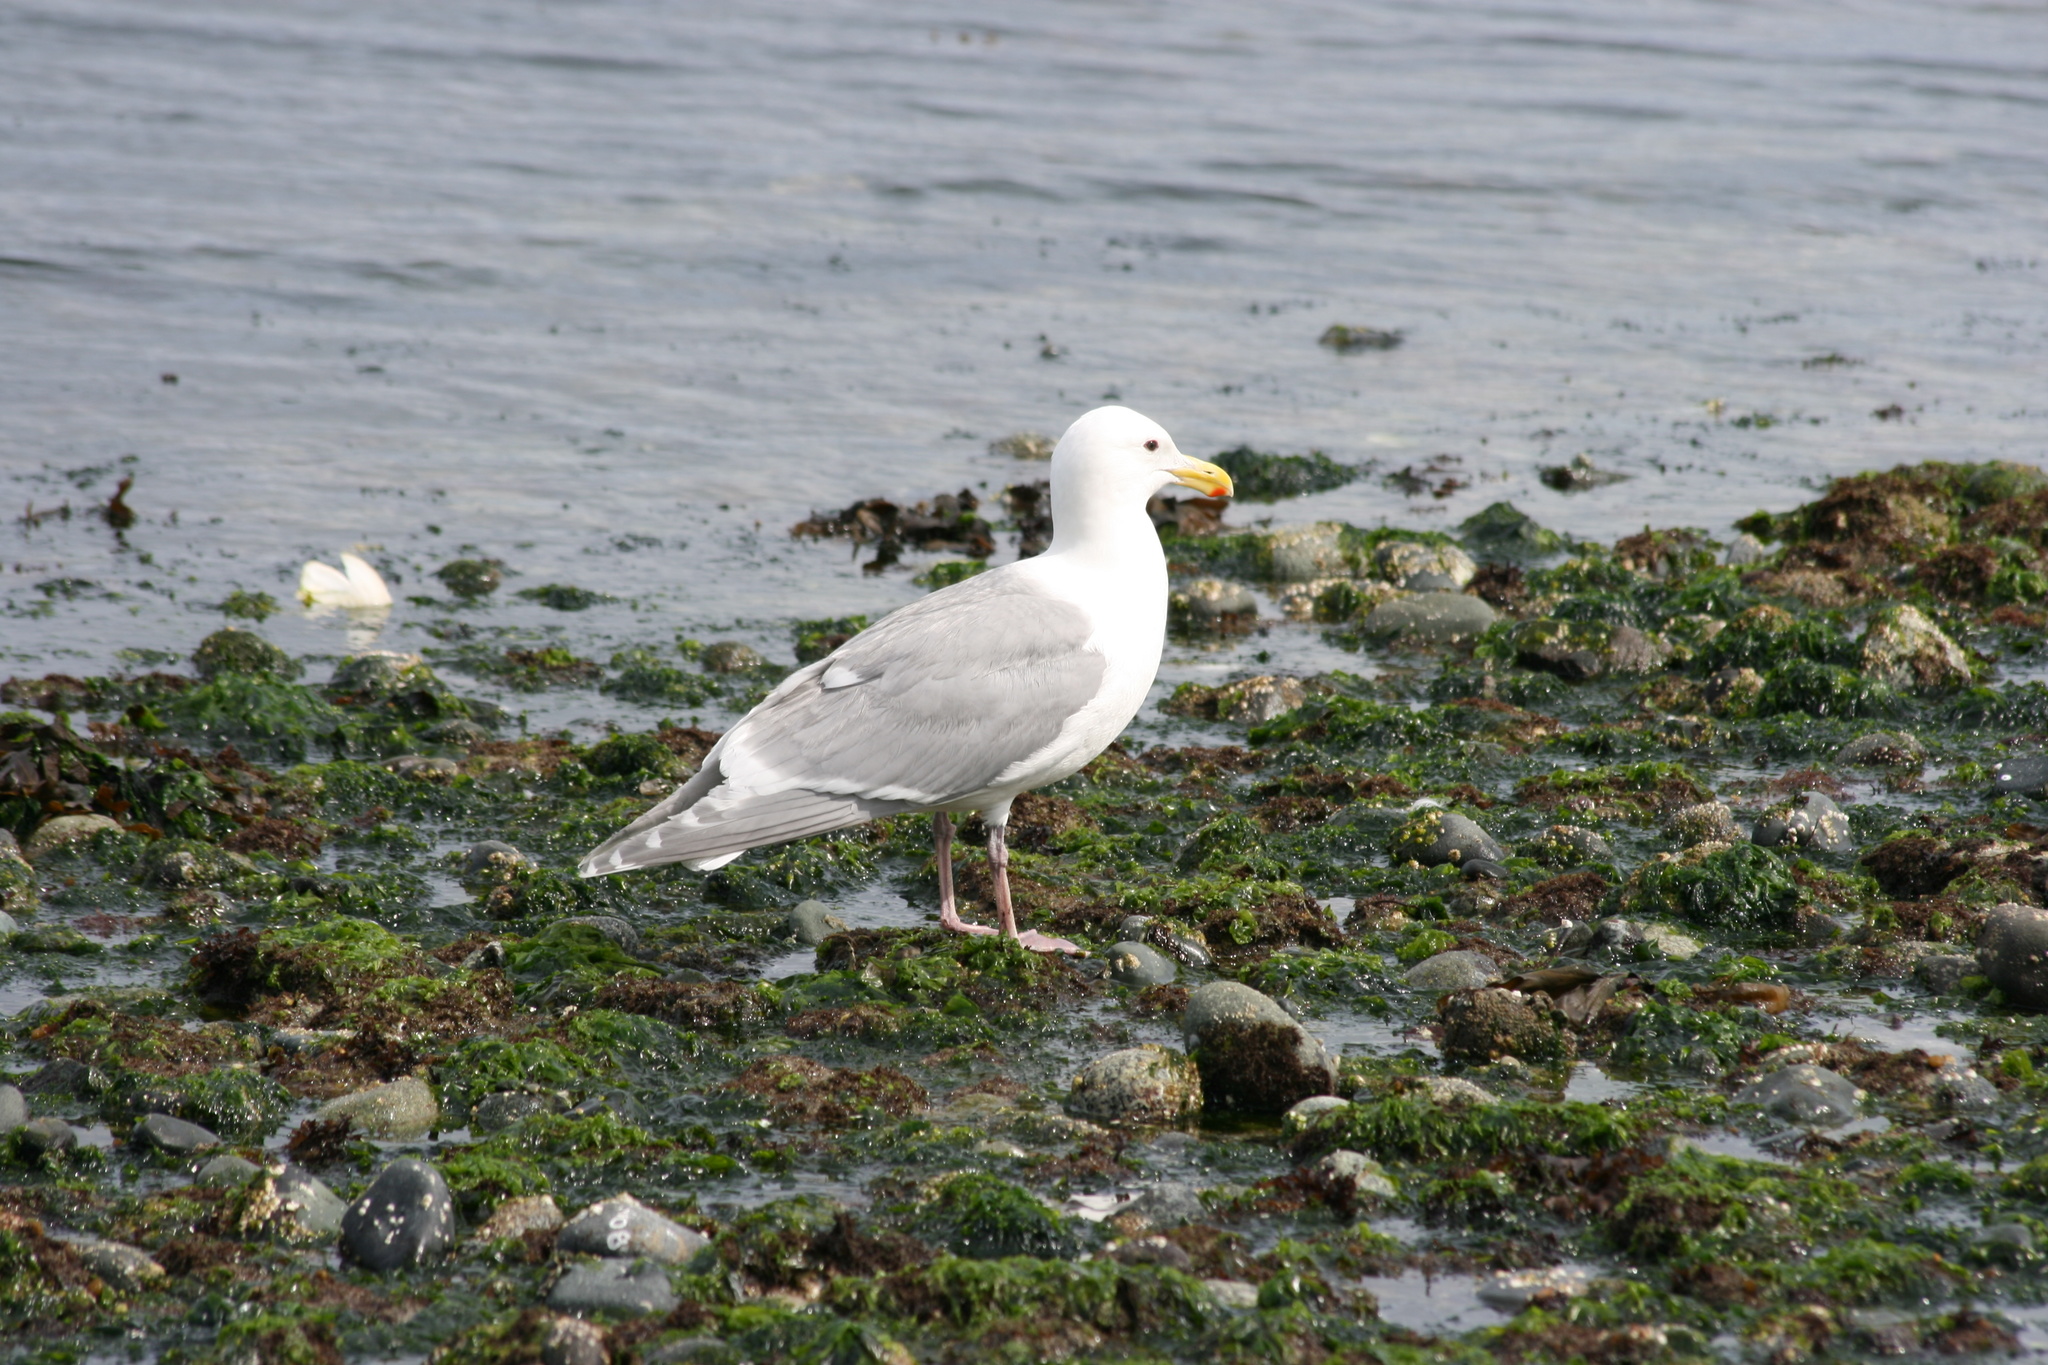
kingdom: Animalia
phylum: Chordata
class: Aves
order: Charadriiformes
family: Laridae
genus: Larus
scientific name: Larus glaucescens
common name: Glaucous-winged gull
